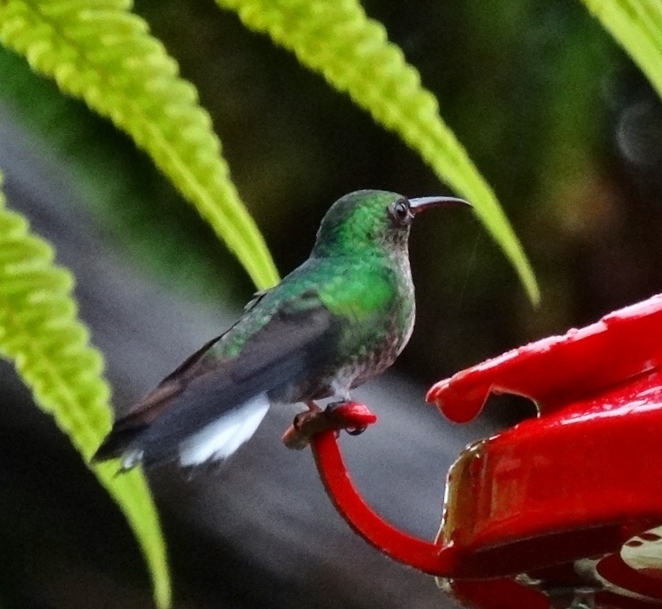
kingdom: Animalia
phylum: Chordata
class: Aves
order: Apodiformes
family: Trochilidae
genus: Microchera
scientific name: Microchera cupreiceps
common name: Coppery-headed emerald
